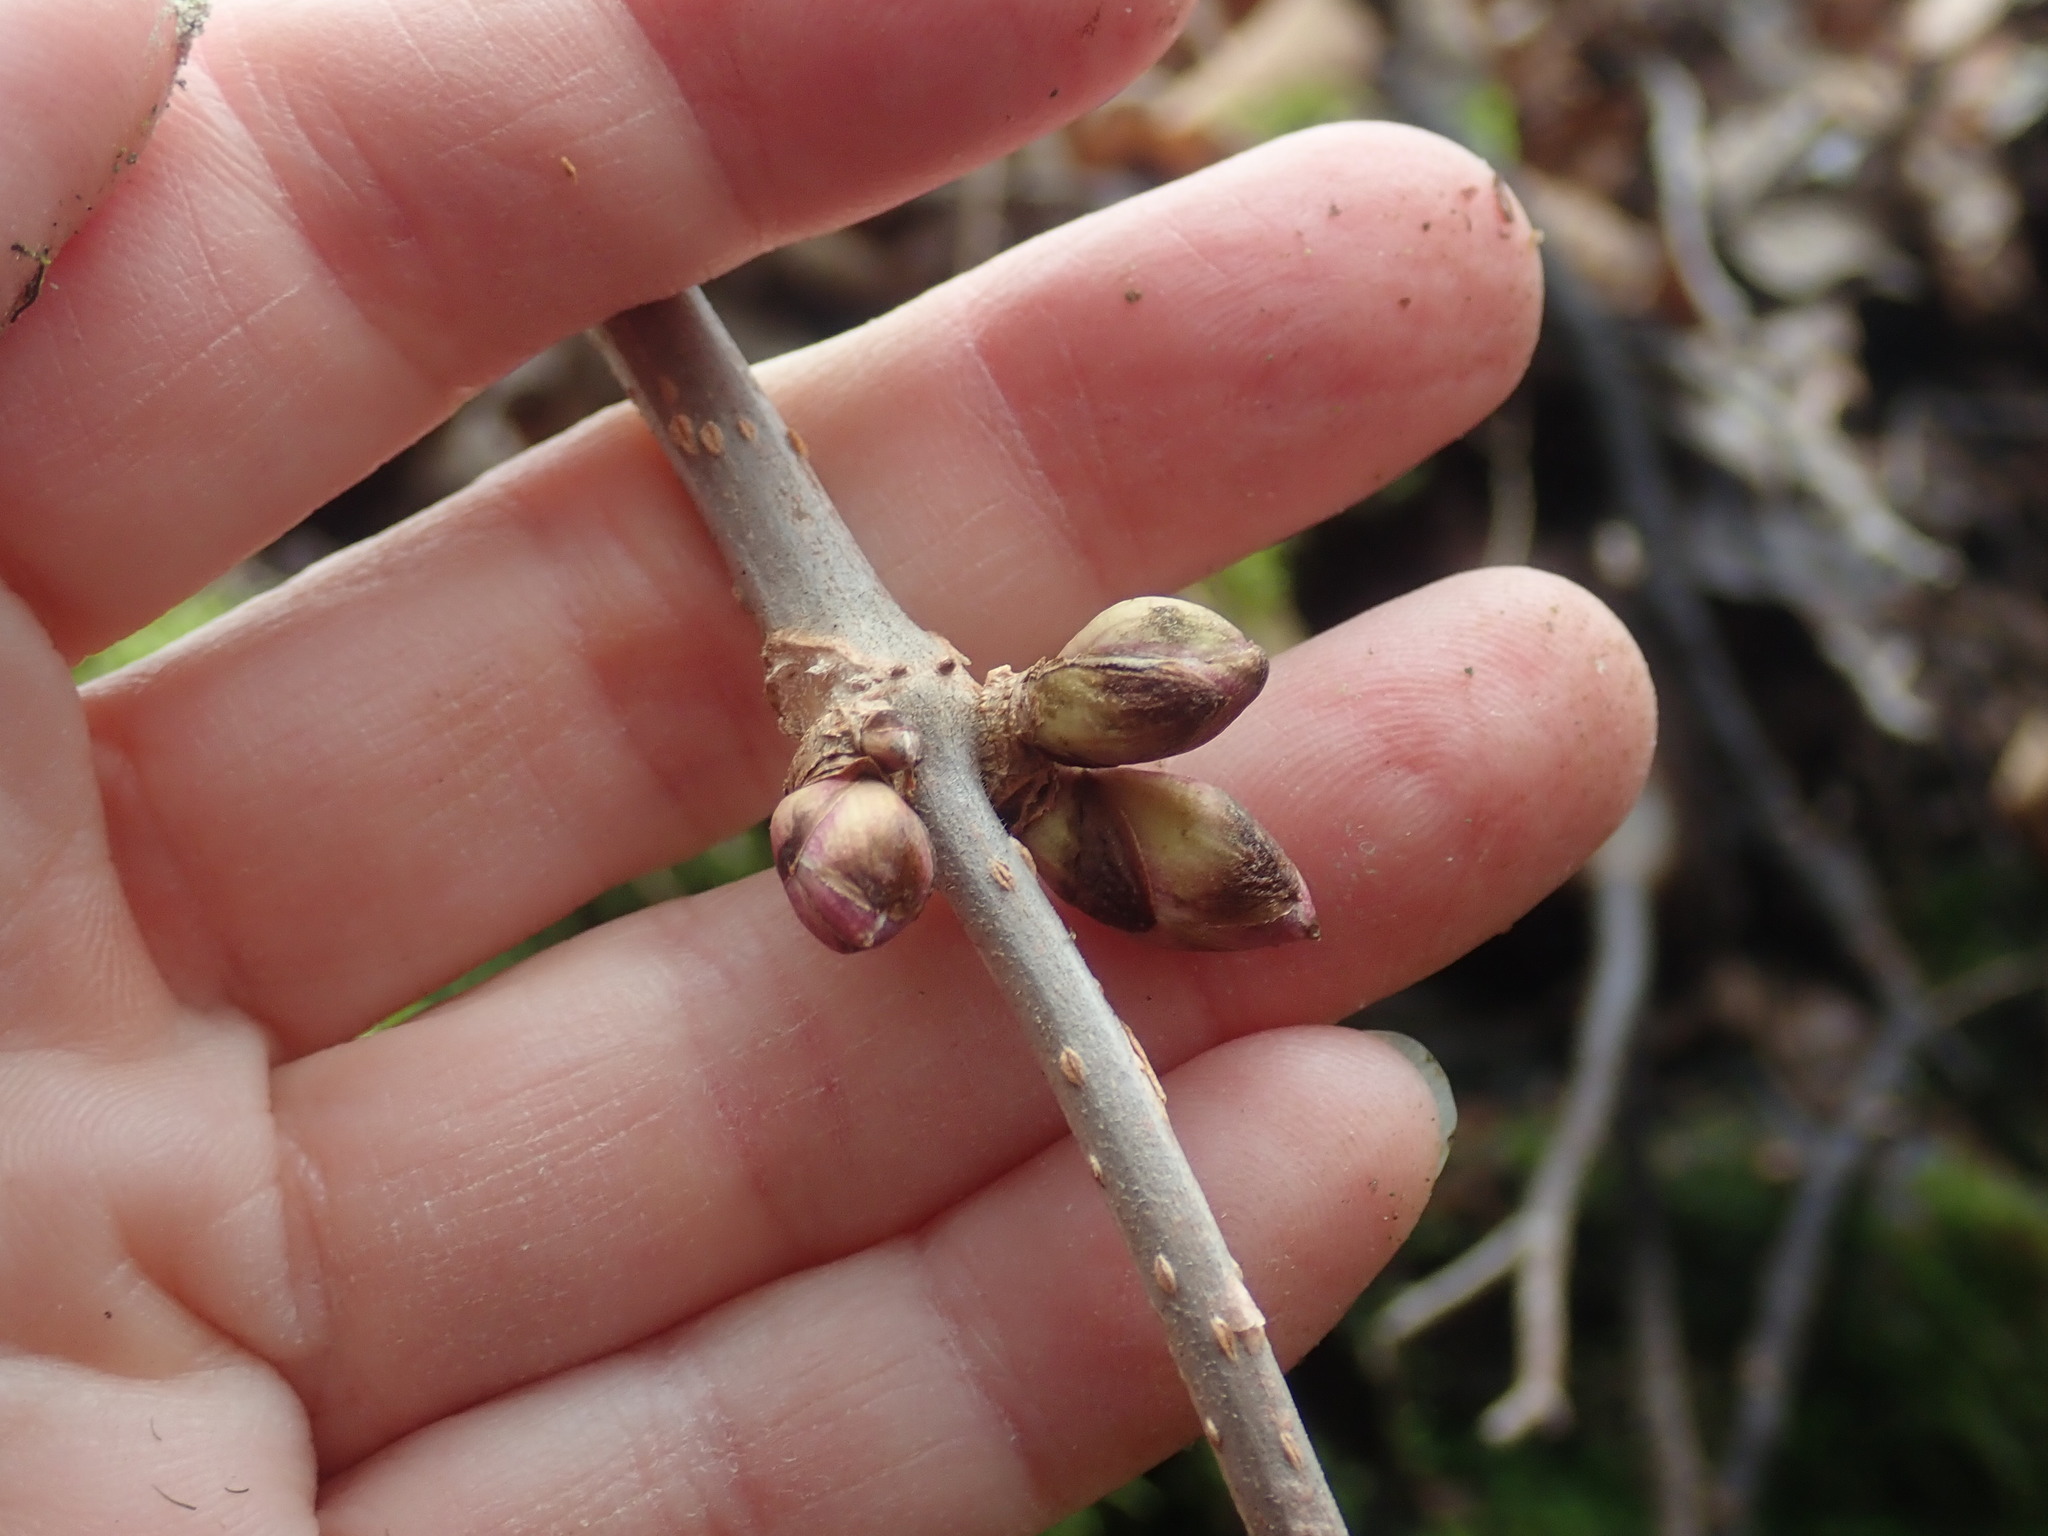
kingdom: Plantae
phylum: Tracheophyta
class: Magnoliopsida
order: Dipsacales
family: Viburnaceae
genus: Sambucus
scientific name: Sambucus racemosa
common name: Red-berried elder
